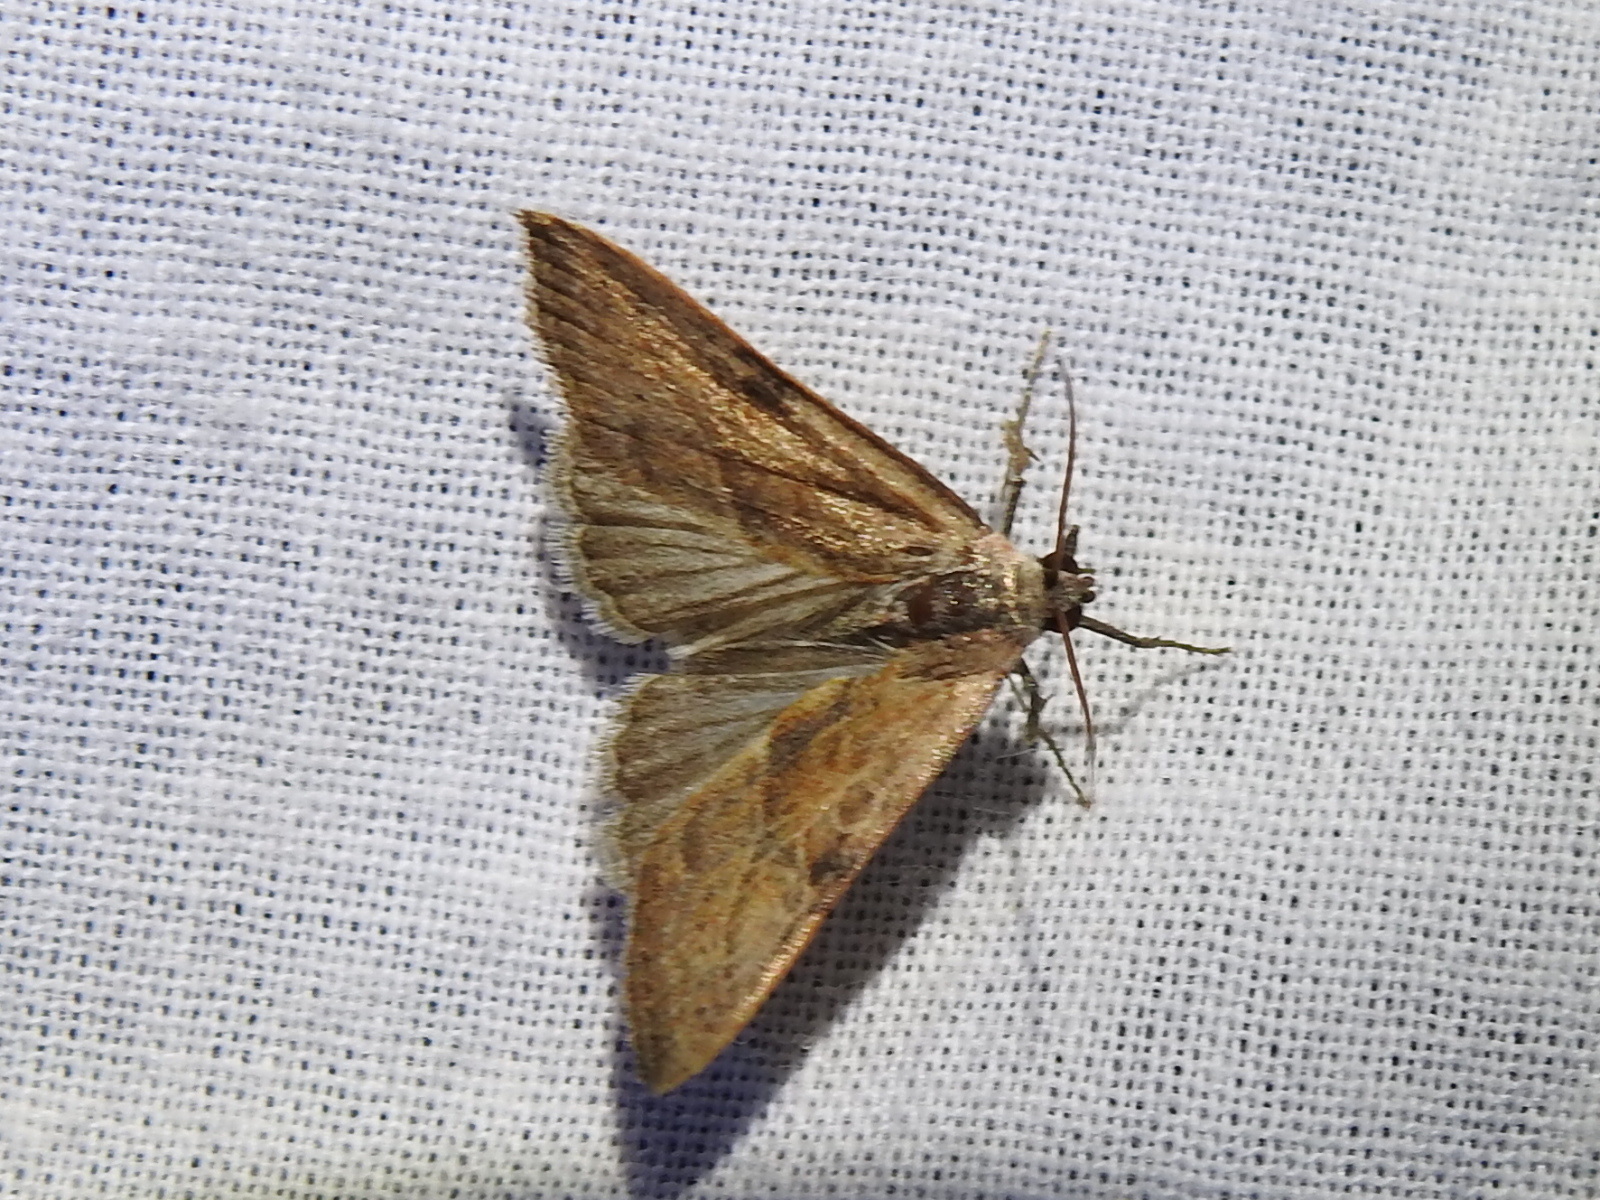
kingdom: Animalia
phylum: Arthropoda
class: Insecta
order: Lepidoptera
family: Noctuidae
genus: Galgula
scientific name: Galgula partita
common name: Wedgeling
